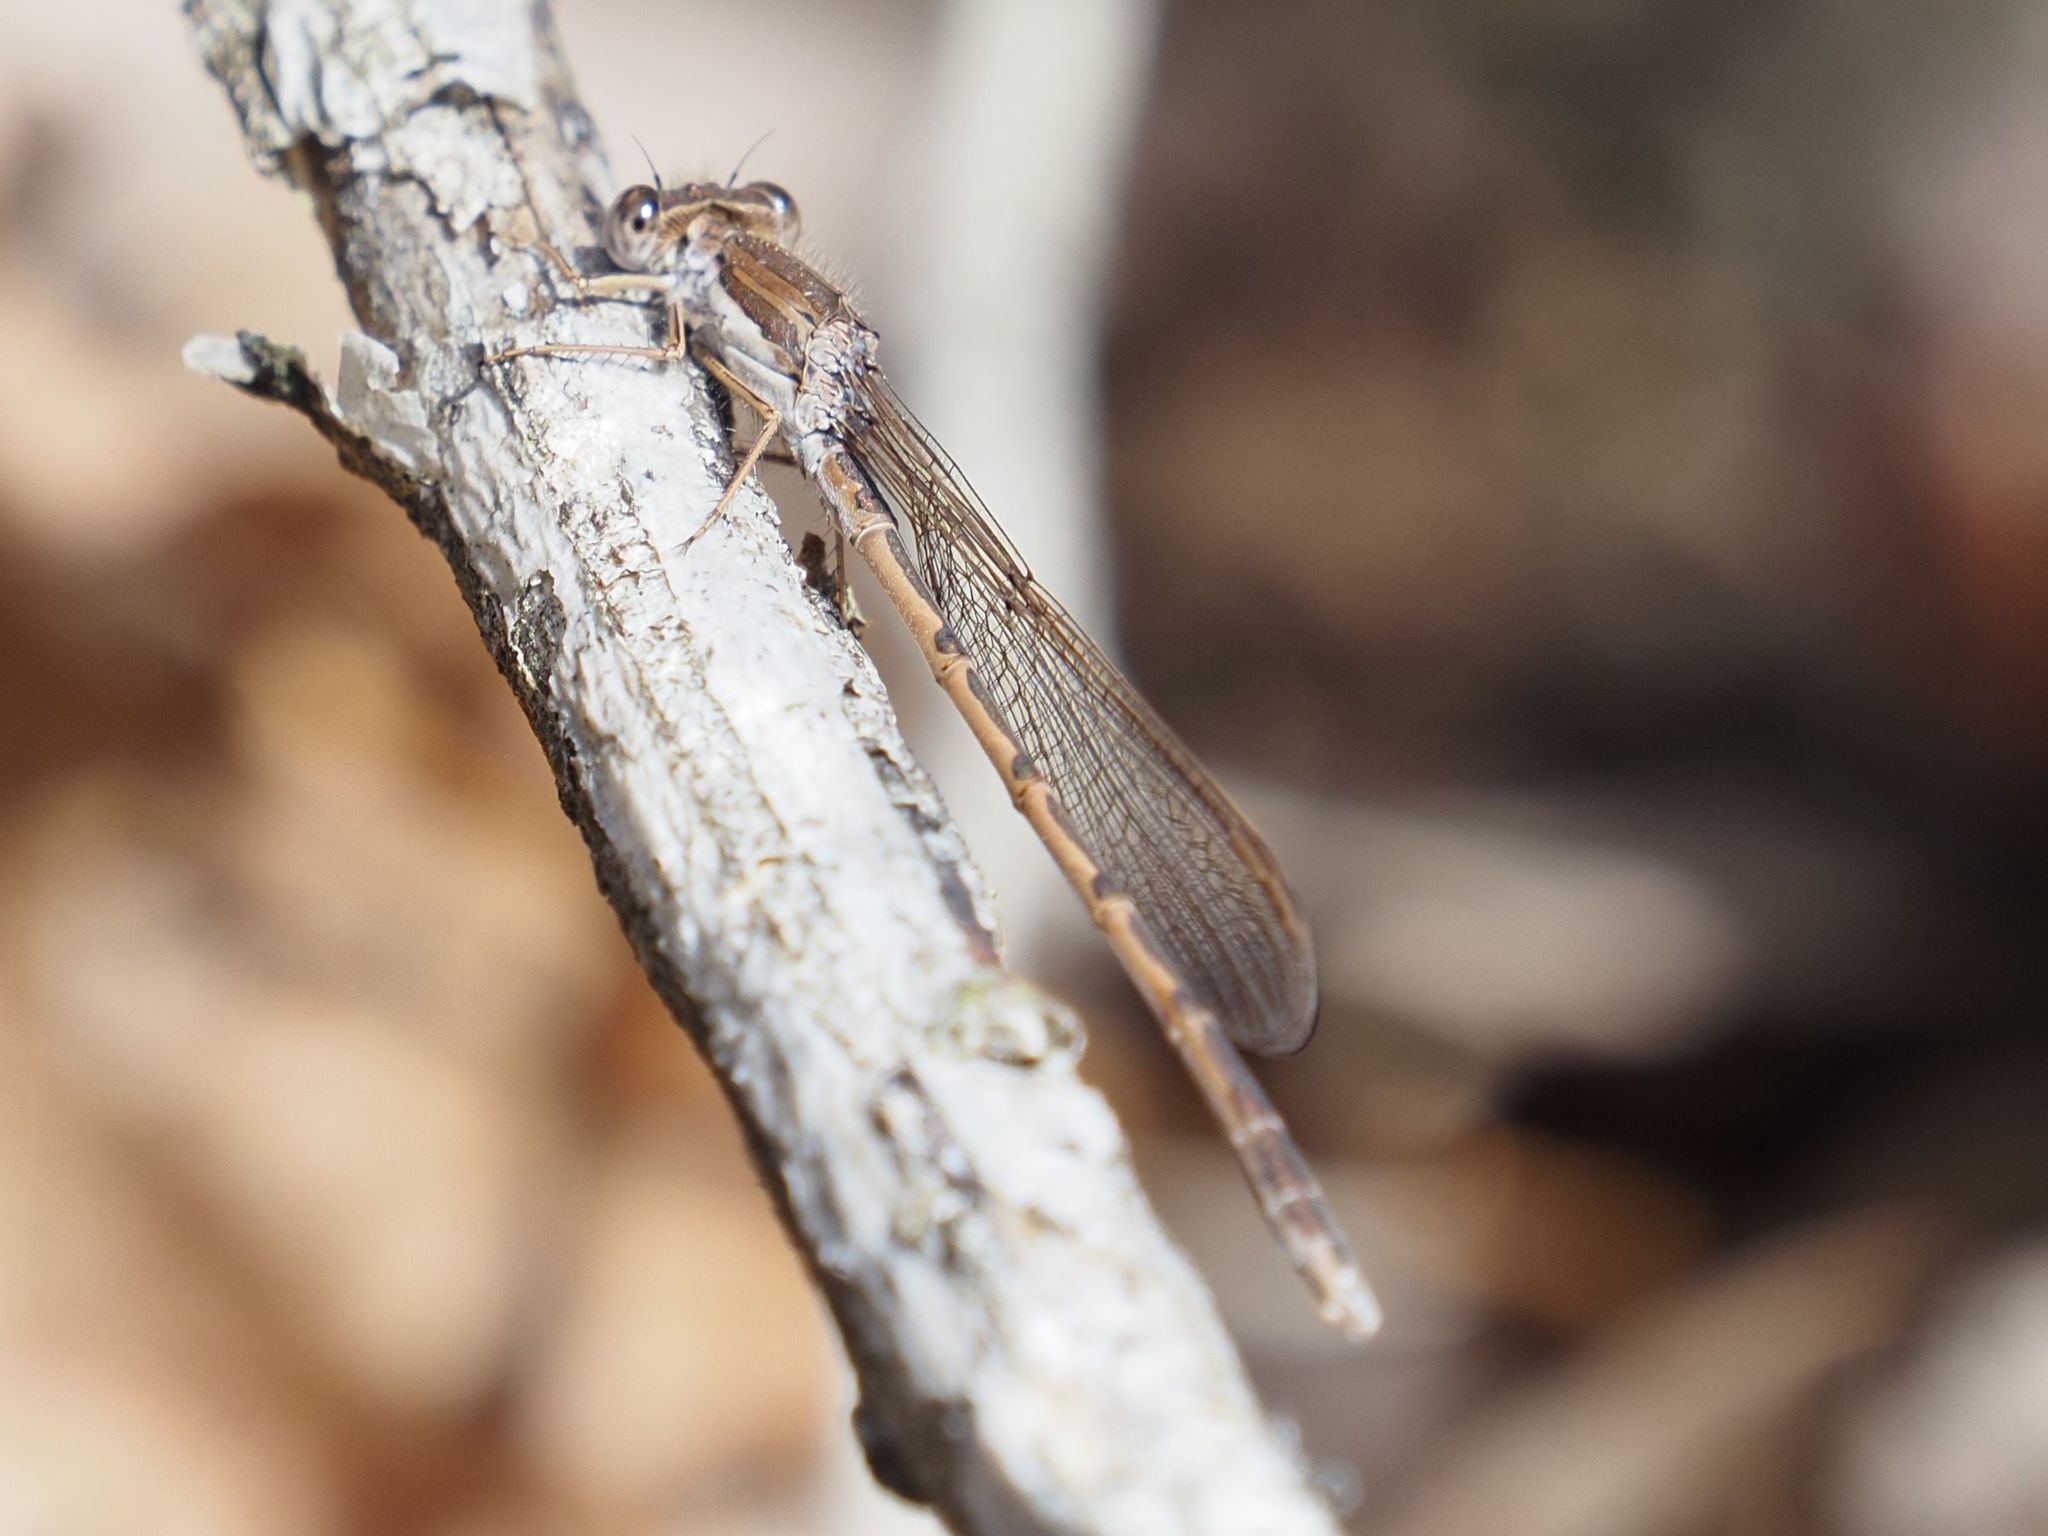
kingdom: Animalia
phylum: Arthropoda
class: Insecta
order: Odonata
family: Lestidae
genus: Sympecma
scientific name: Sympecma fusca
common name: Common winter damsel
